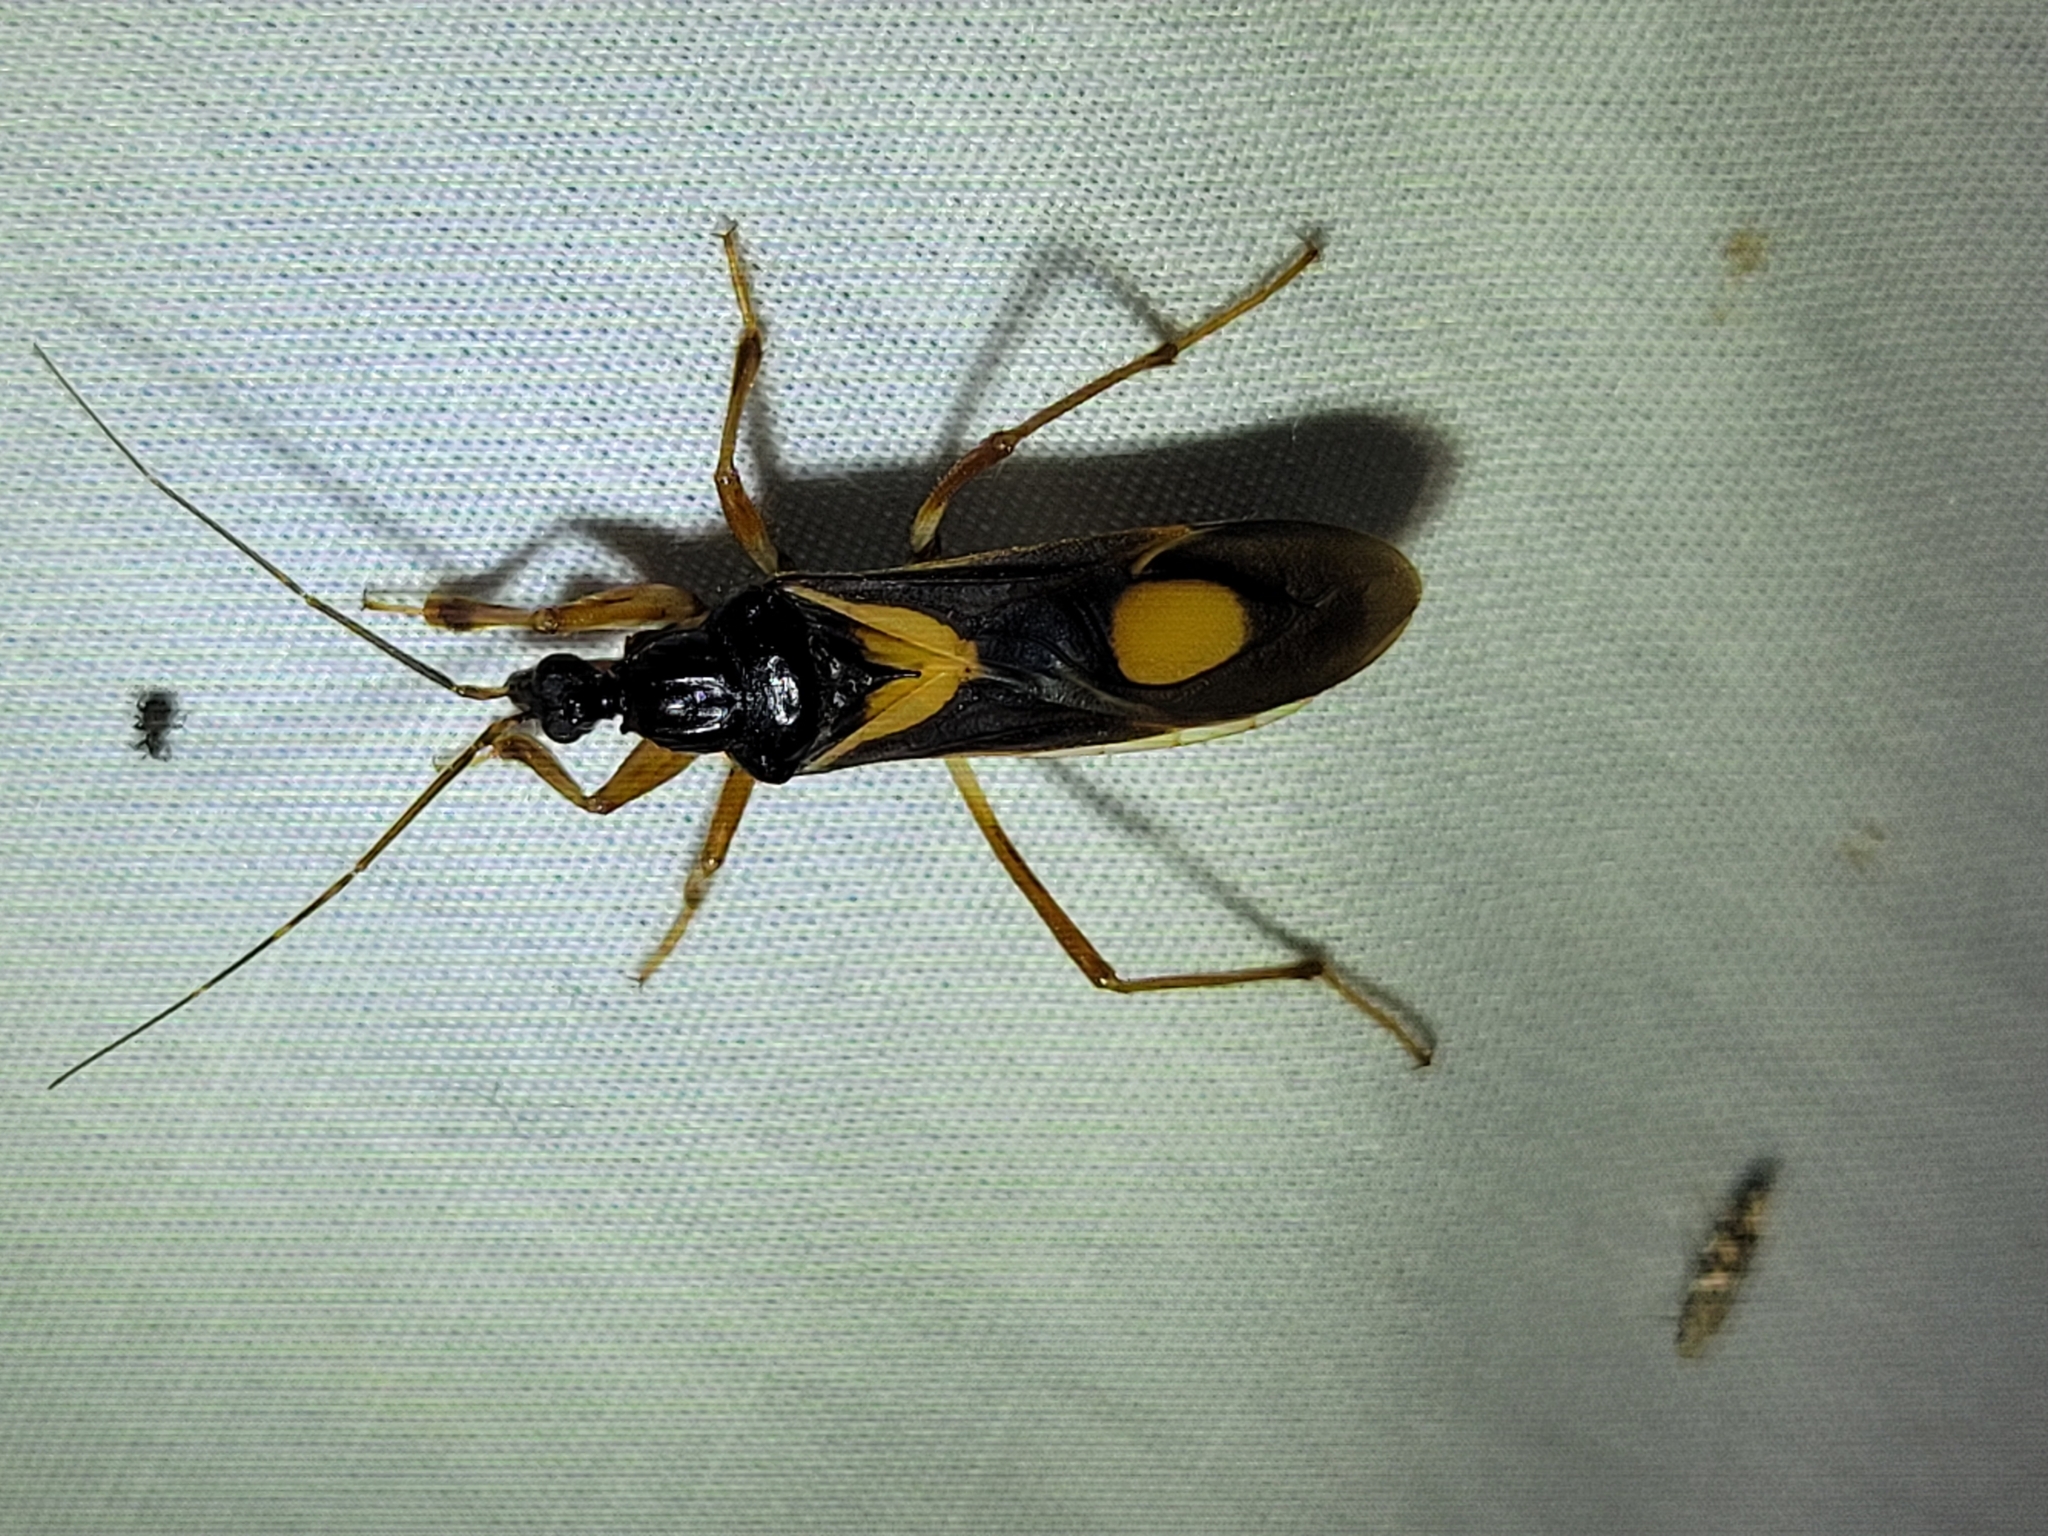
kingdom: Animalia
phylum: Arthropoda
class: Insecta
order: Hemiptera
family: Reduviidae
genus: Rasahus
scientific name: Rasahus hamatus
